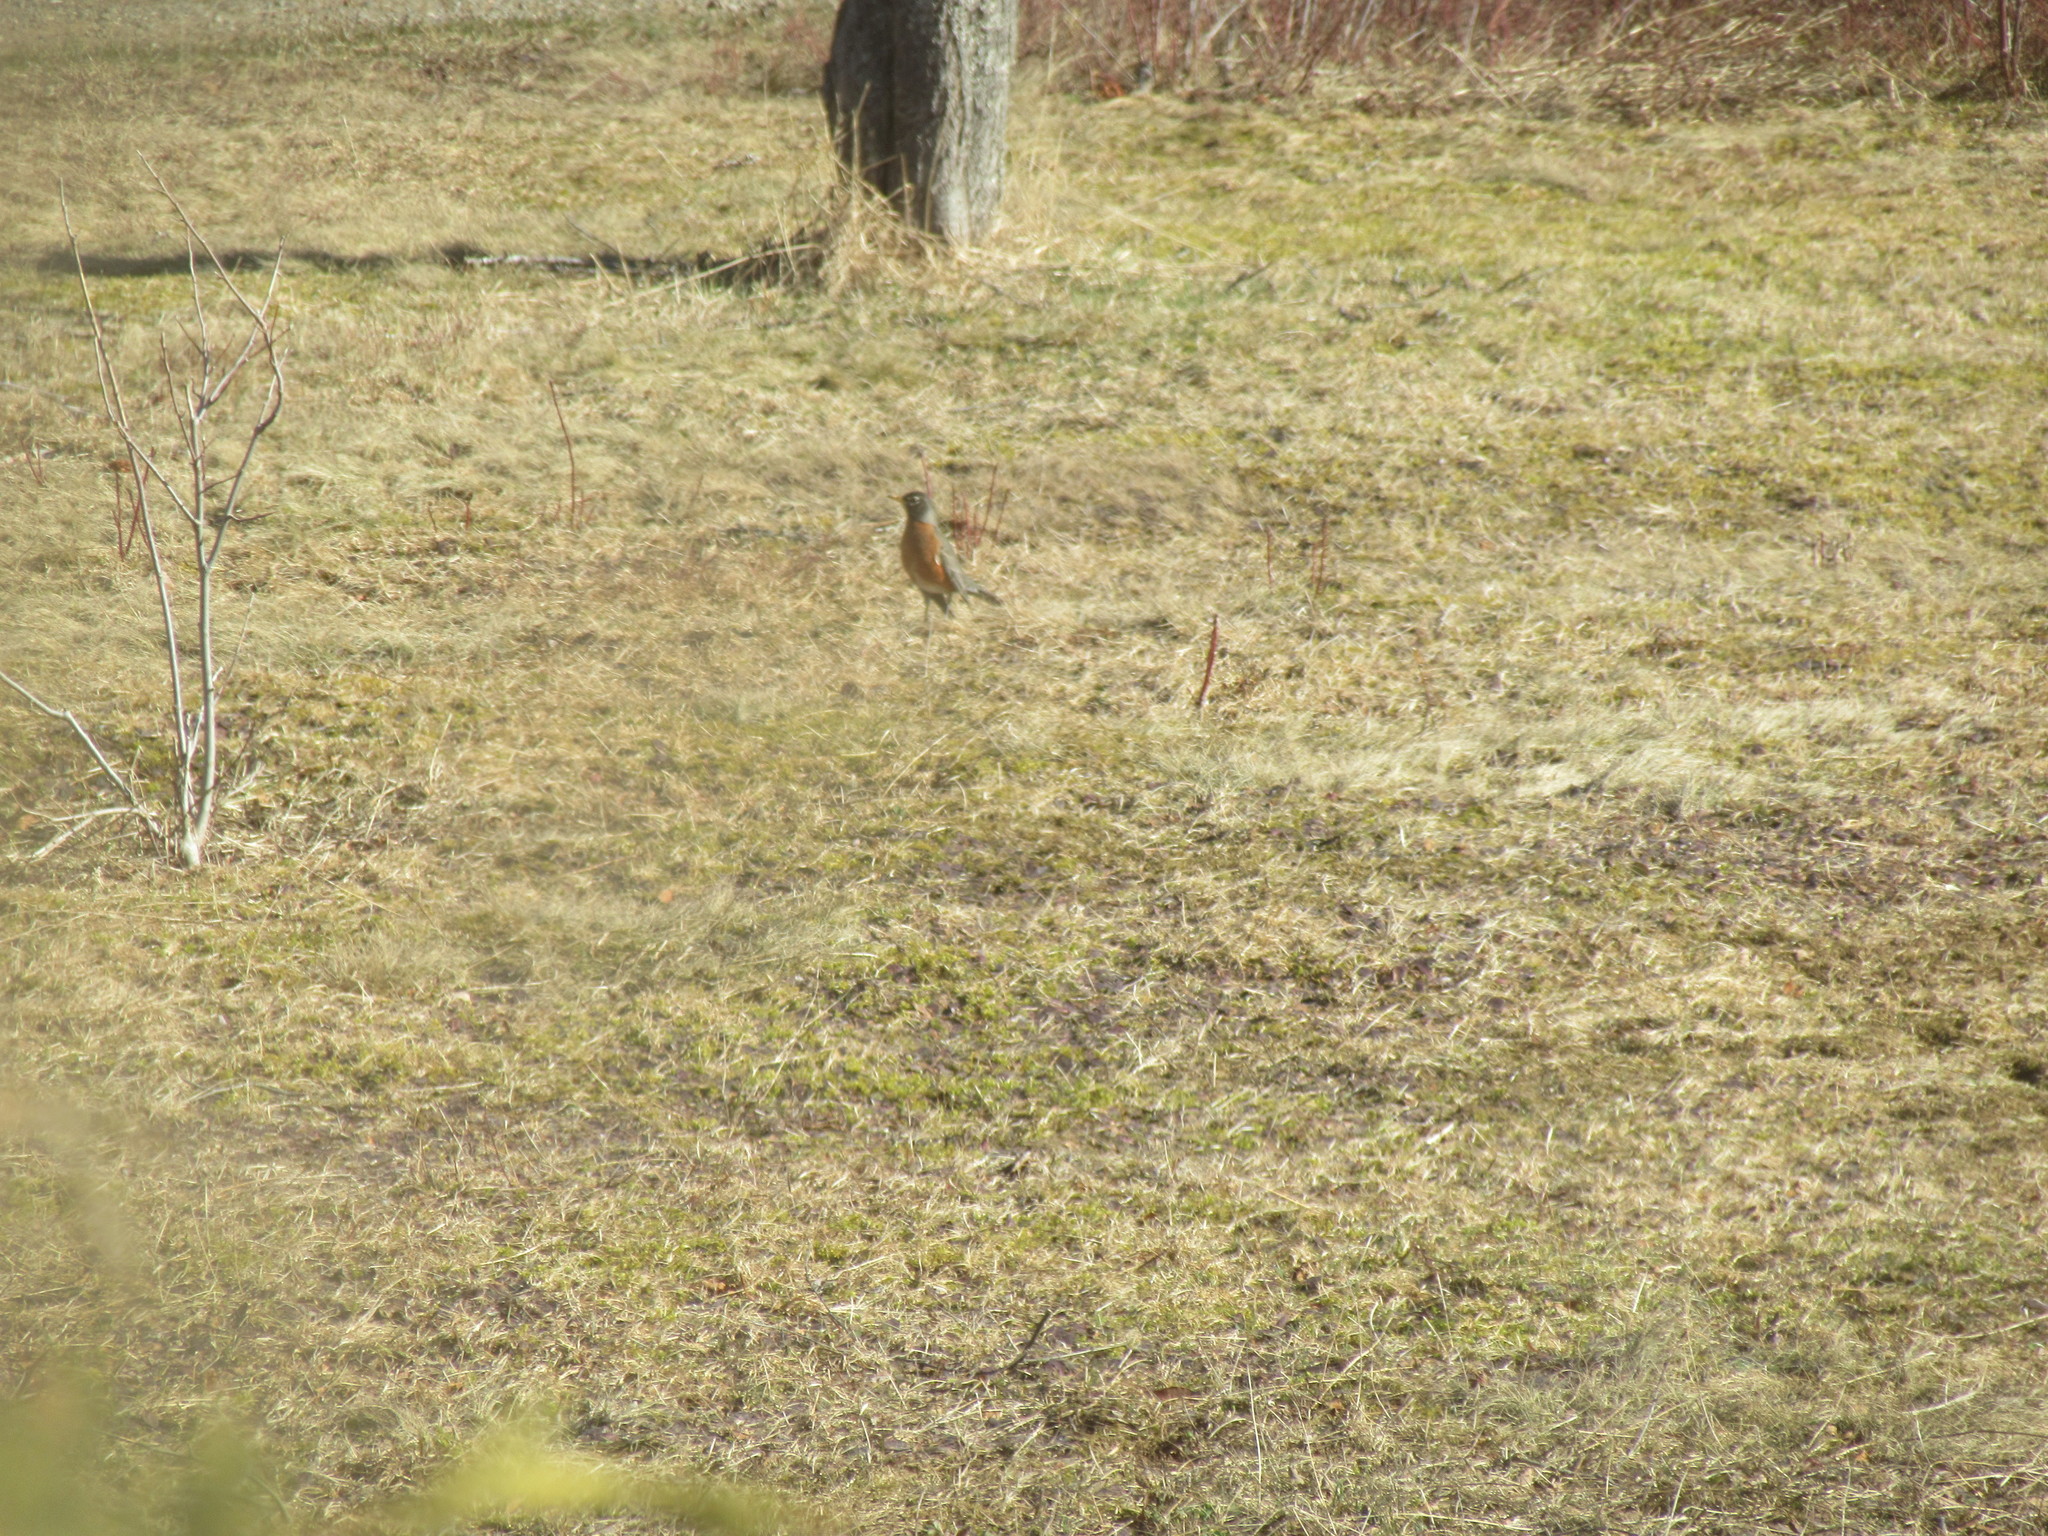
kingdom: Animalia
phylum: Chordata
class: Aves
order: Passeriformes
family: Turdidae
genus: Turdus
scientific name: Turdus migratorius
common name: American robin
